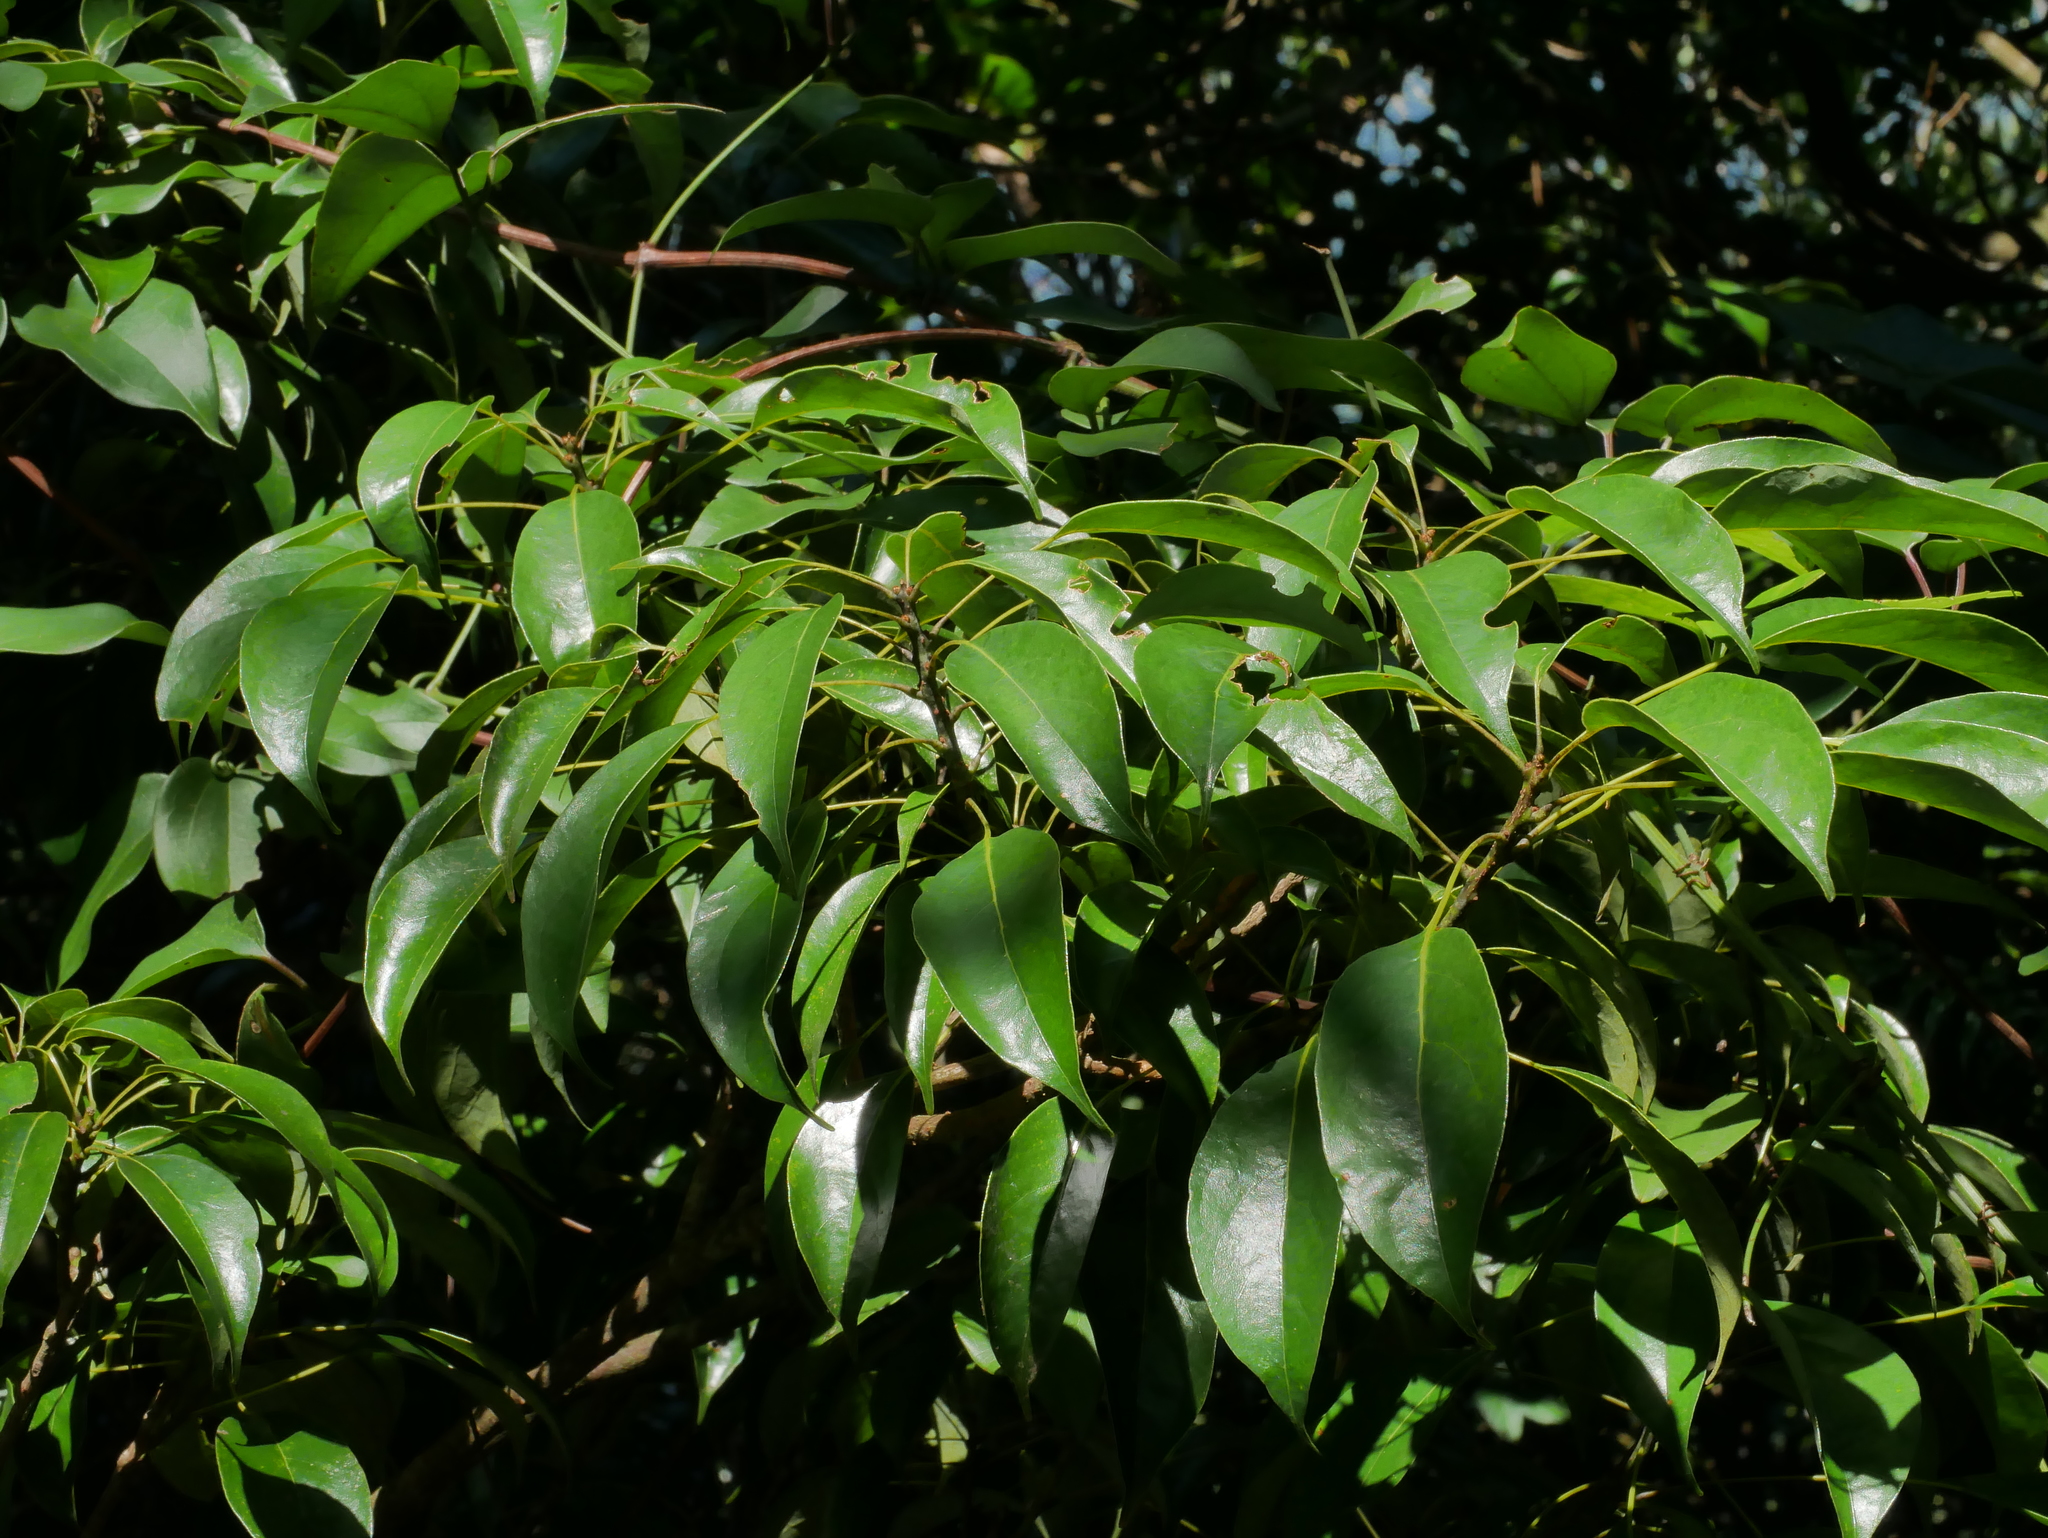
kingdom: Plantae
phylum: Tracheophyta
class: Magnoliopsida
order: Proteales
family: Sabiaceae
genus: Meliosma
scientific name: Meliosma squamulata
